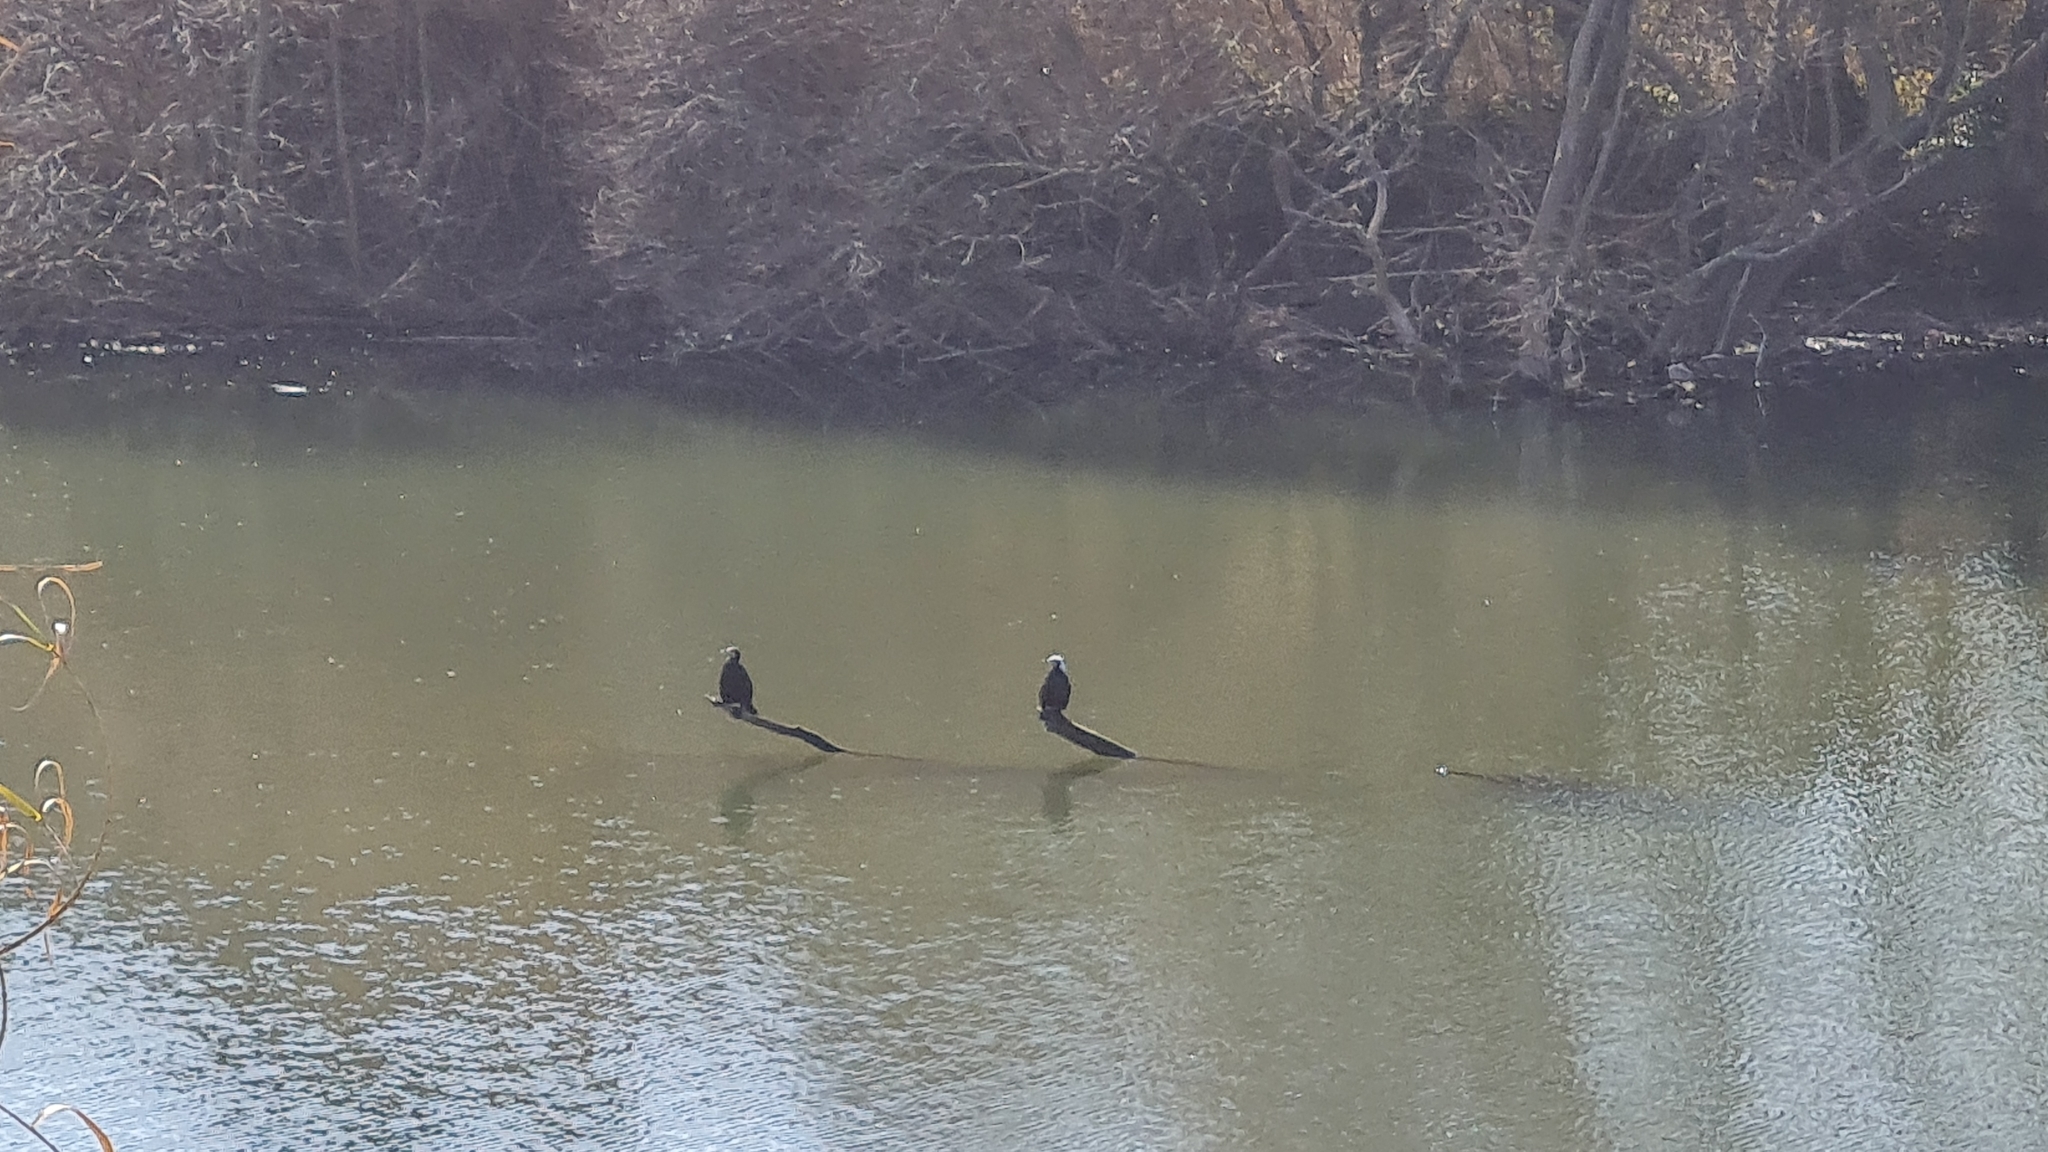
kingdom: Animalia
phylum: Chordata
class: Aves
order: Suliformes
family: Phalacrocoracidae
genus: Phalacrocorax
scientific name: Phalacrocorax carbo
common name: Great cormorant
